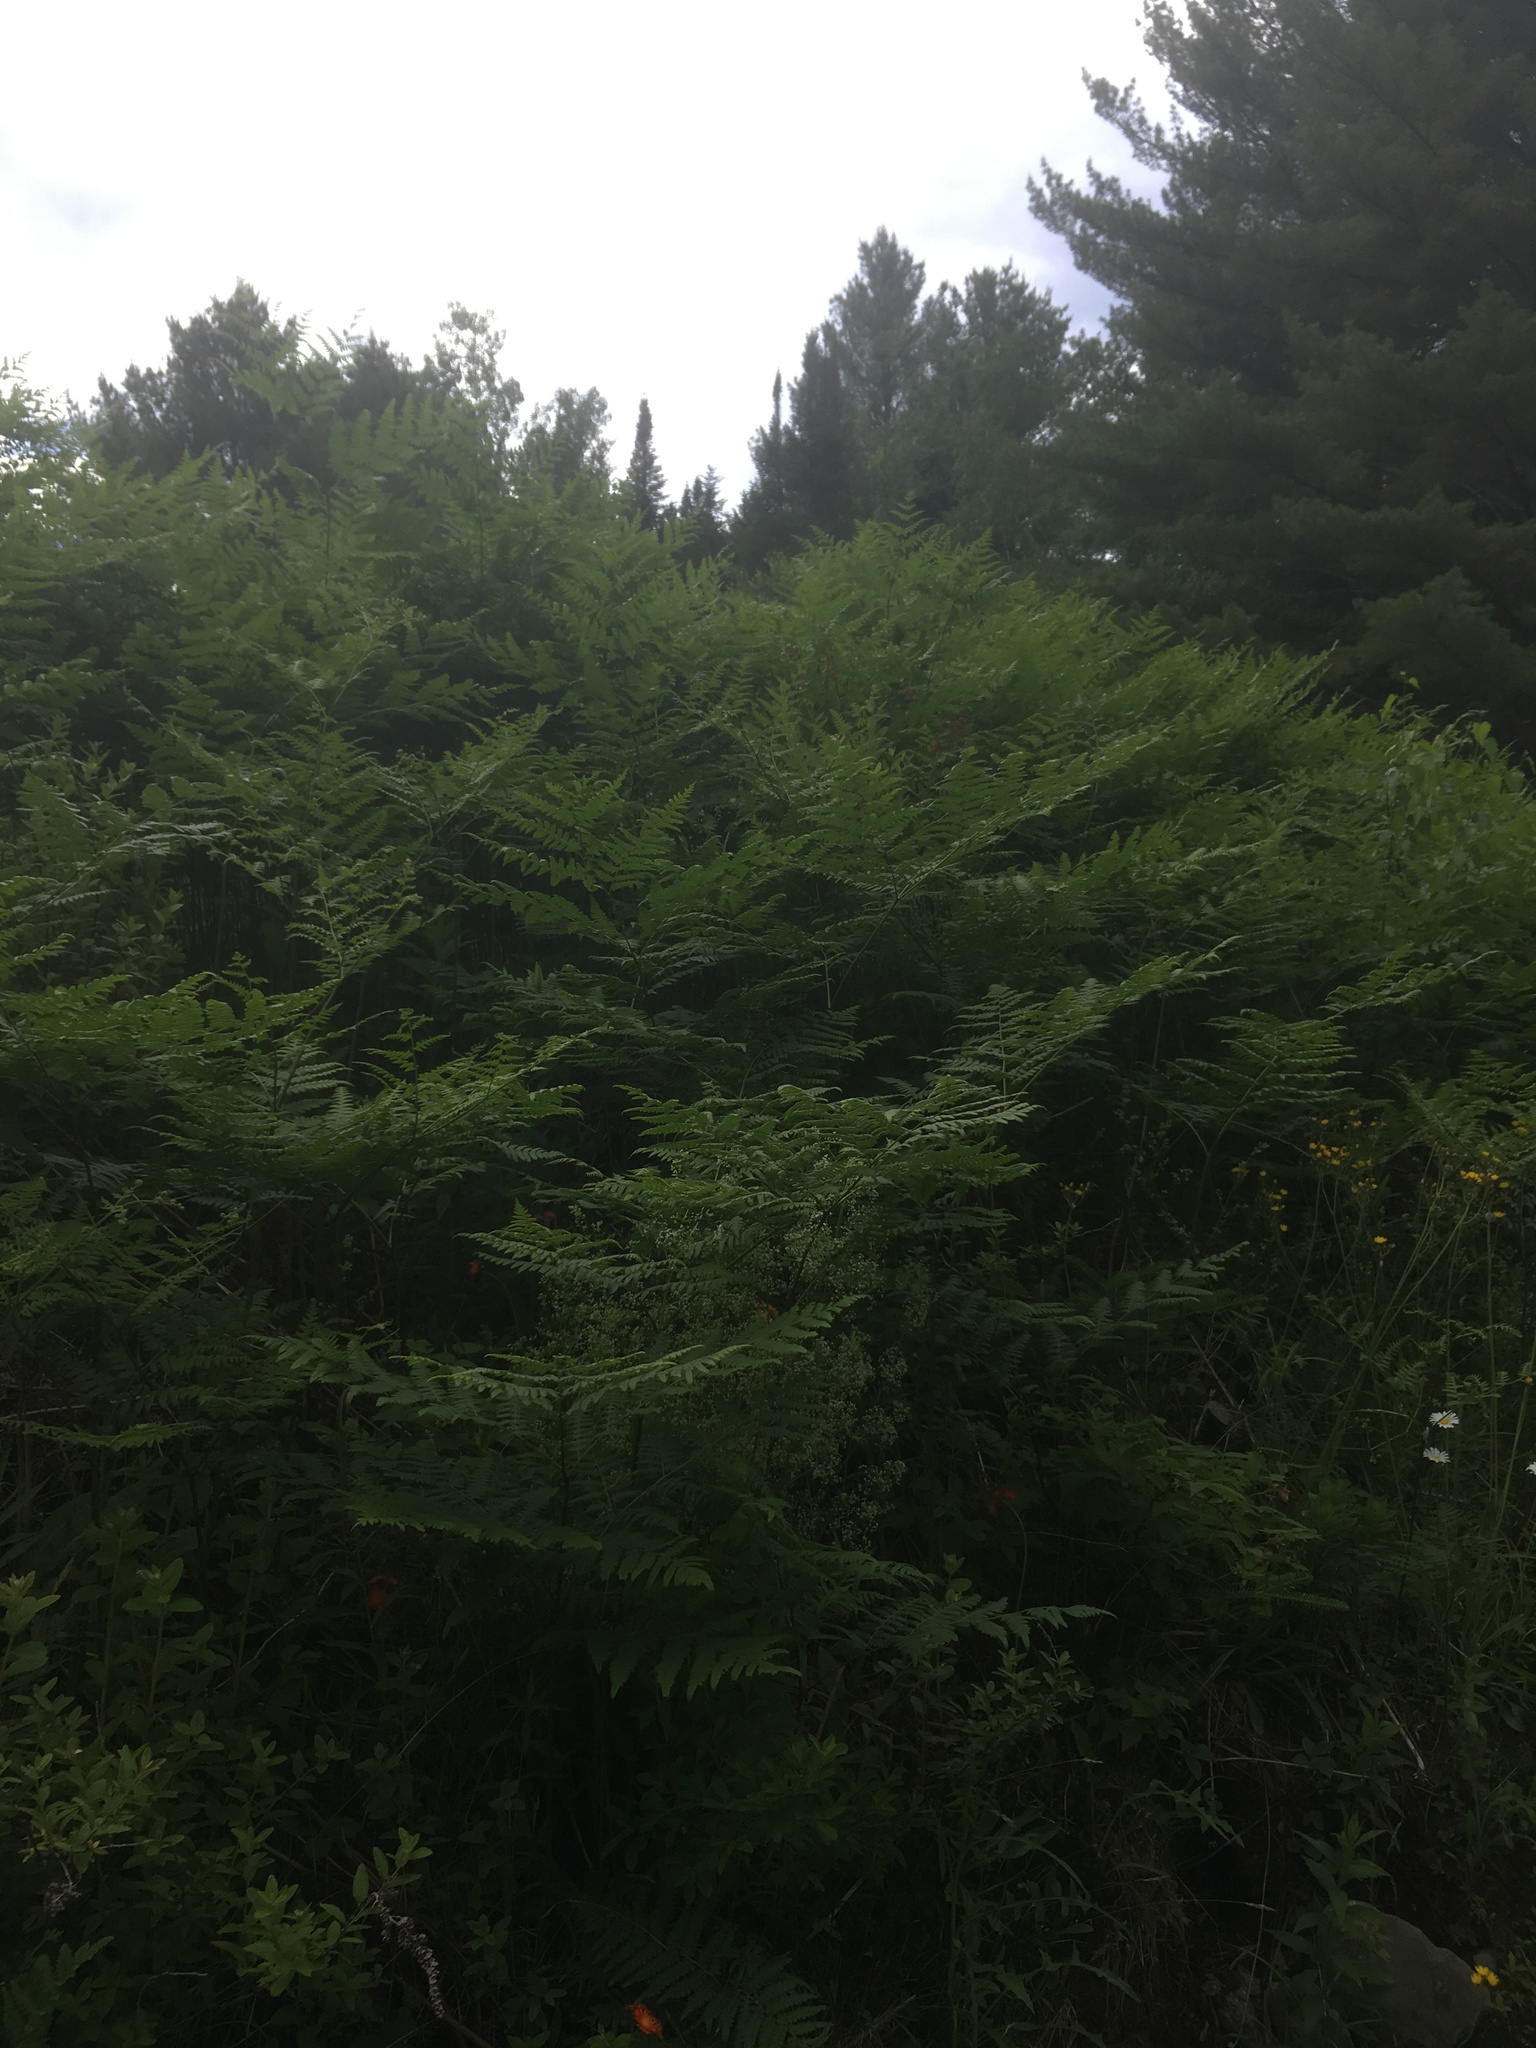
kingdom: Plantae
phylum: Tracheophyta
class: Polypodiopsida
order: Polypodiales
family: Dennstaedtiaceae
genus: Pteridium
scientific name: Pteridium aquilinum
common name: Bracken
